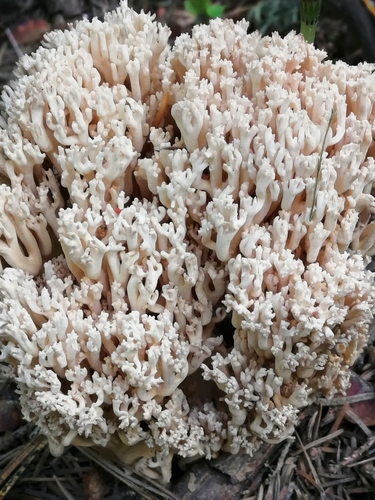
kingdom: Fungi
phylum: Basidiomycota
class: Agaricomycetes
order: Gomphales
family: Gomphaceae
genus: Ramaria
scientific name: Ramaria pallida
